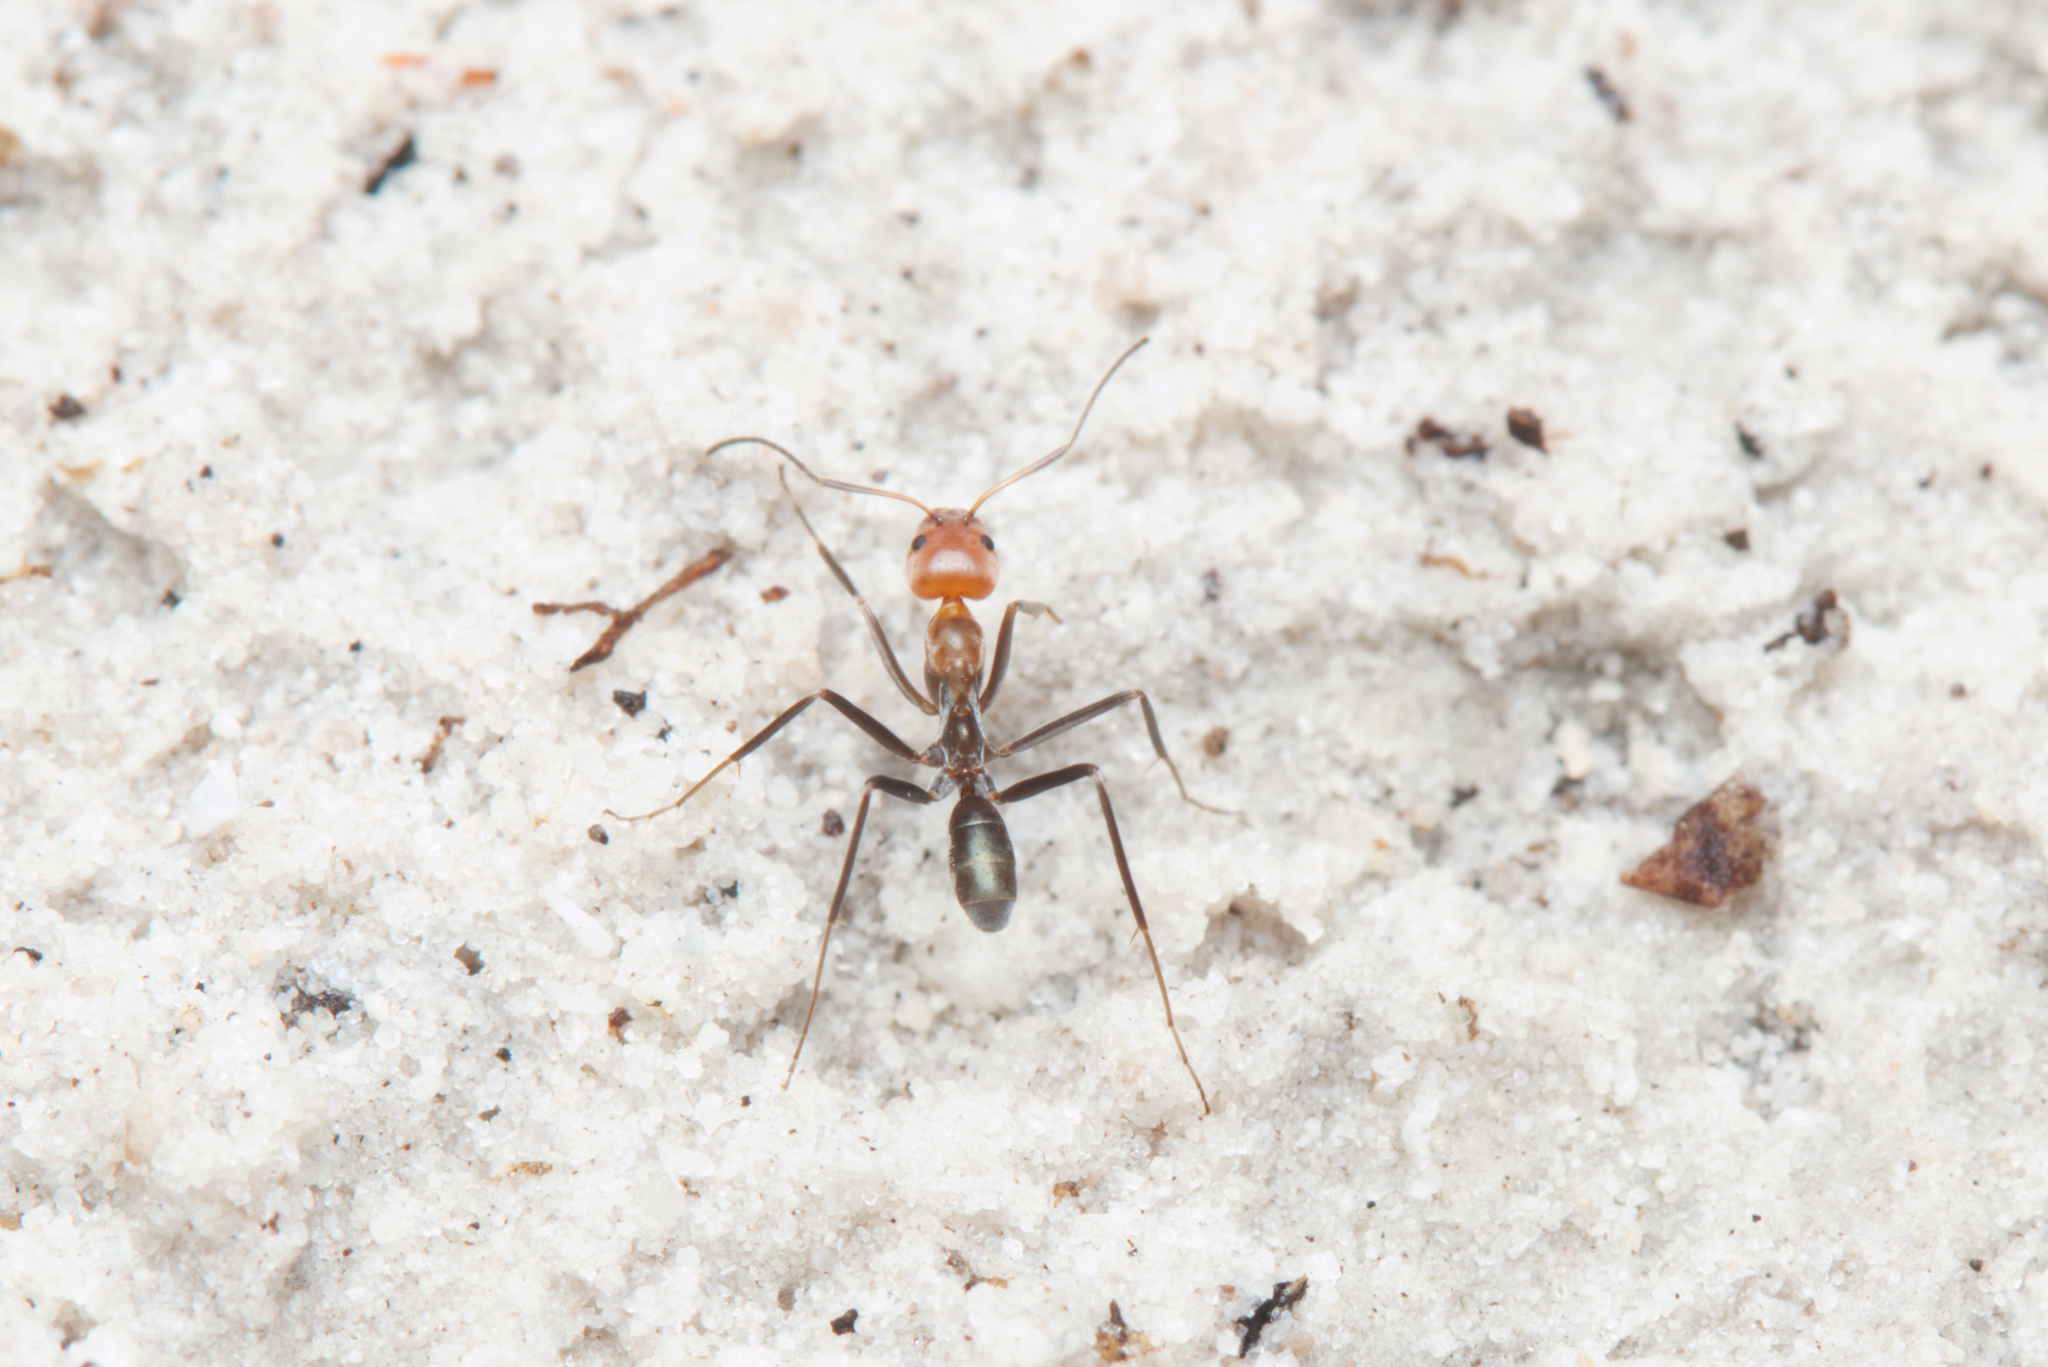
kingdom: Animalia
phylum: Arthropoda
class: Insecta
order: Hymenoptera
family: Formicidae
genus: Iridomyrmex
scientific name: Iridomyrmex
